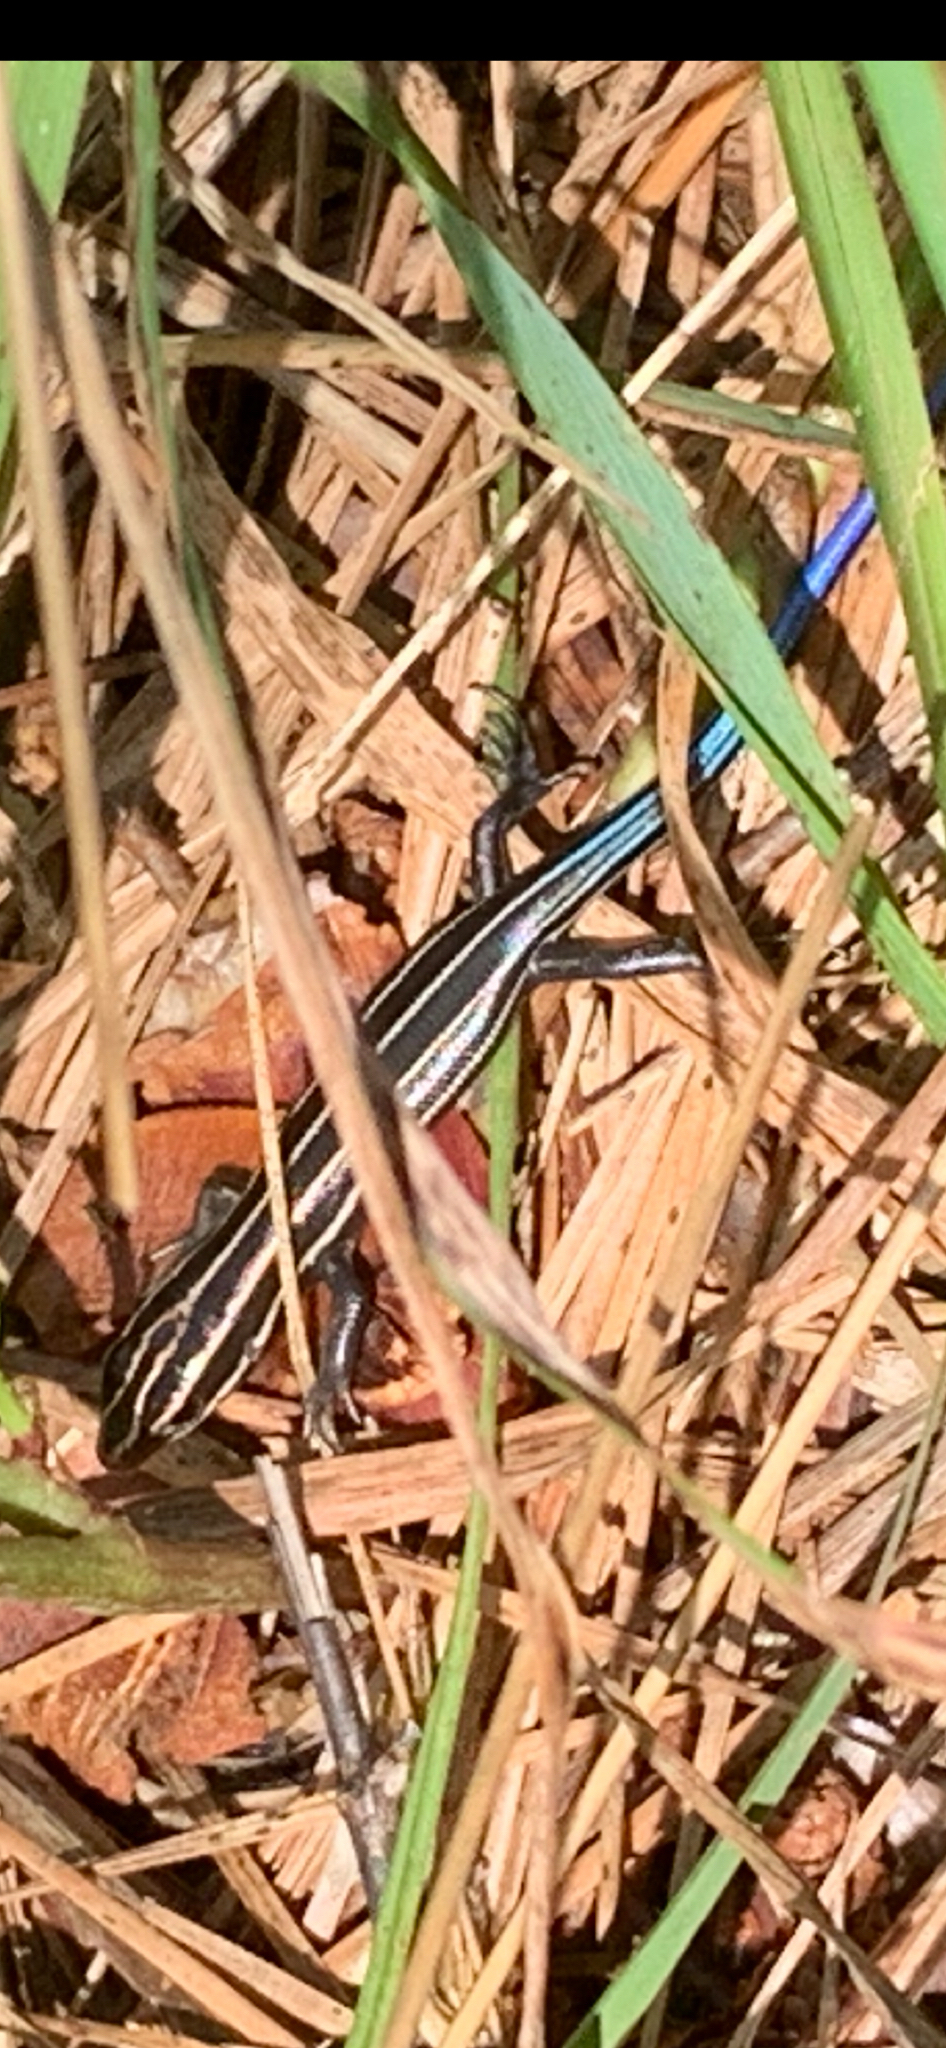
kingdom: Animalia
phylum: Chordata
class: Squamata
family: Scincidae
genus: Plestiodon
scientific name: Plestiodon fasciatus
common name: Five-lined skink
